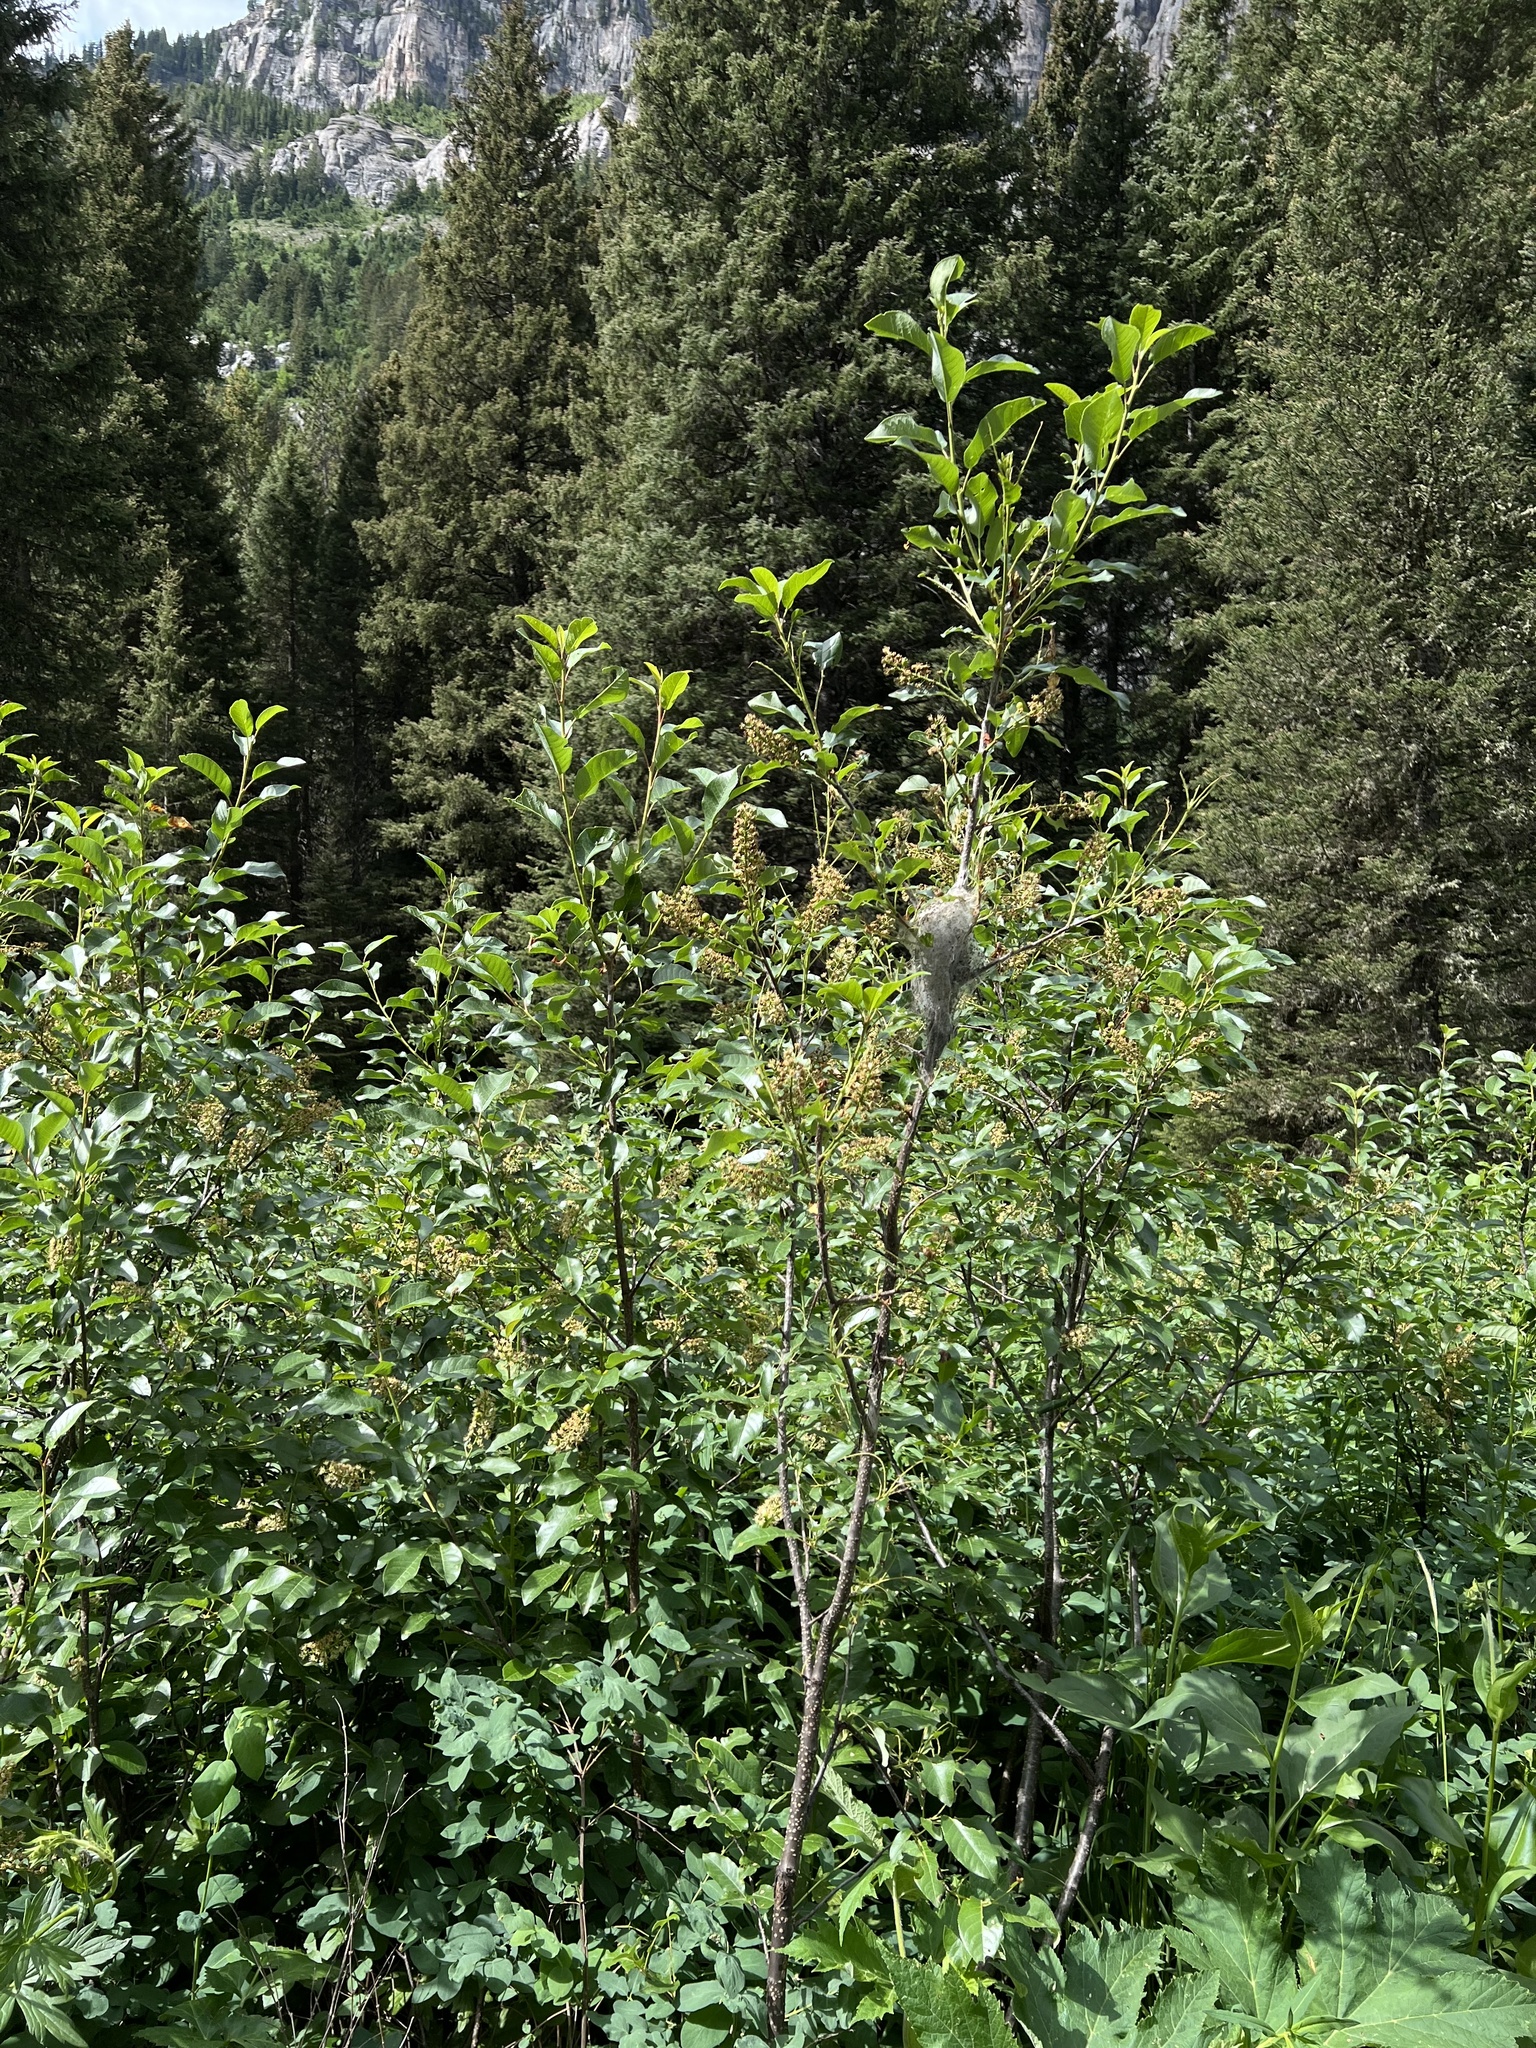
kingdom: Plantae
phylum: Tracheophyta
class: Magnoliopsida
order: Rosales
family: Rosaceae
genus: Prunus
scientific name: Prunus virginiana
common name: Chokecherry
